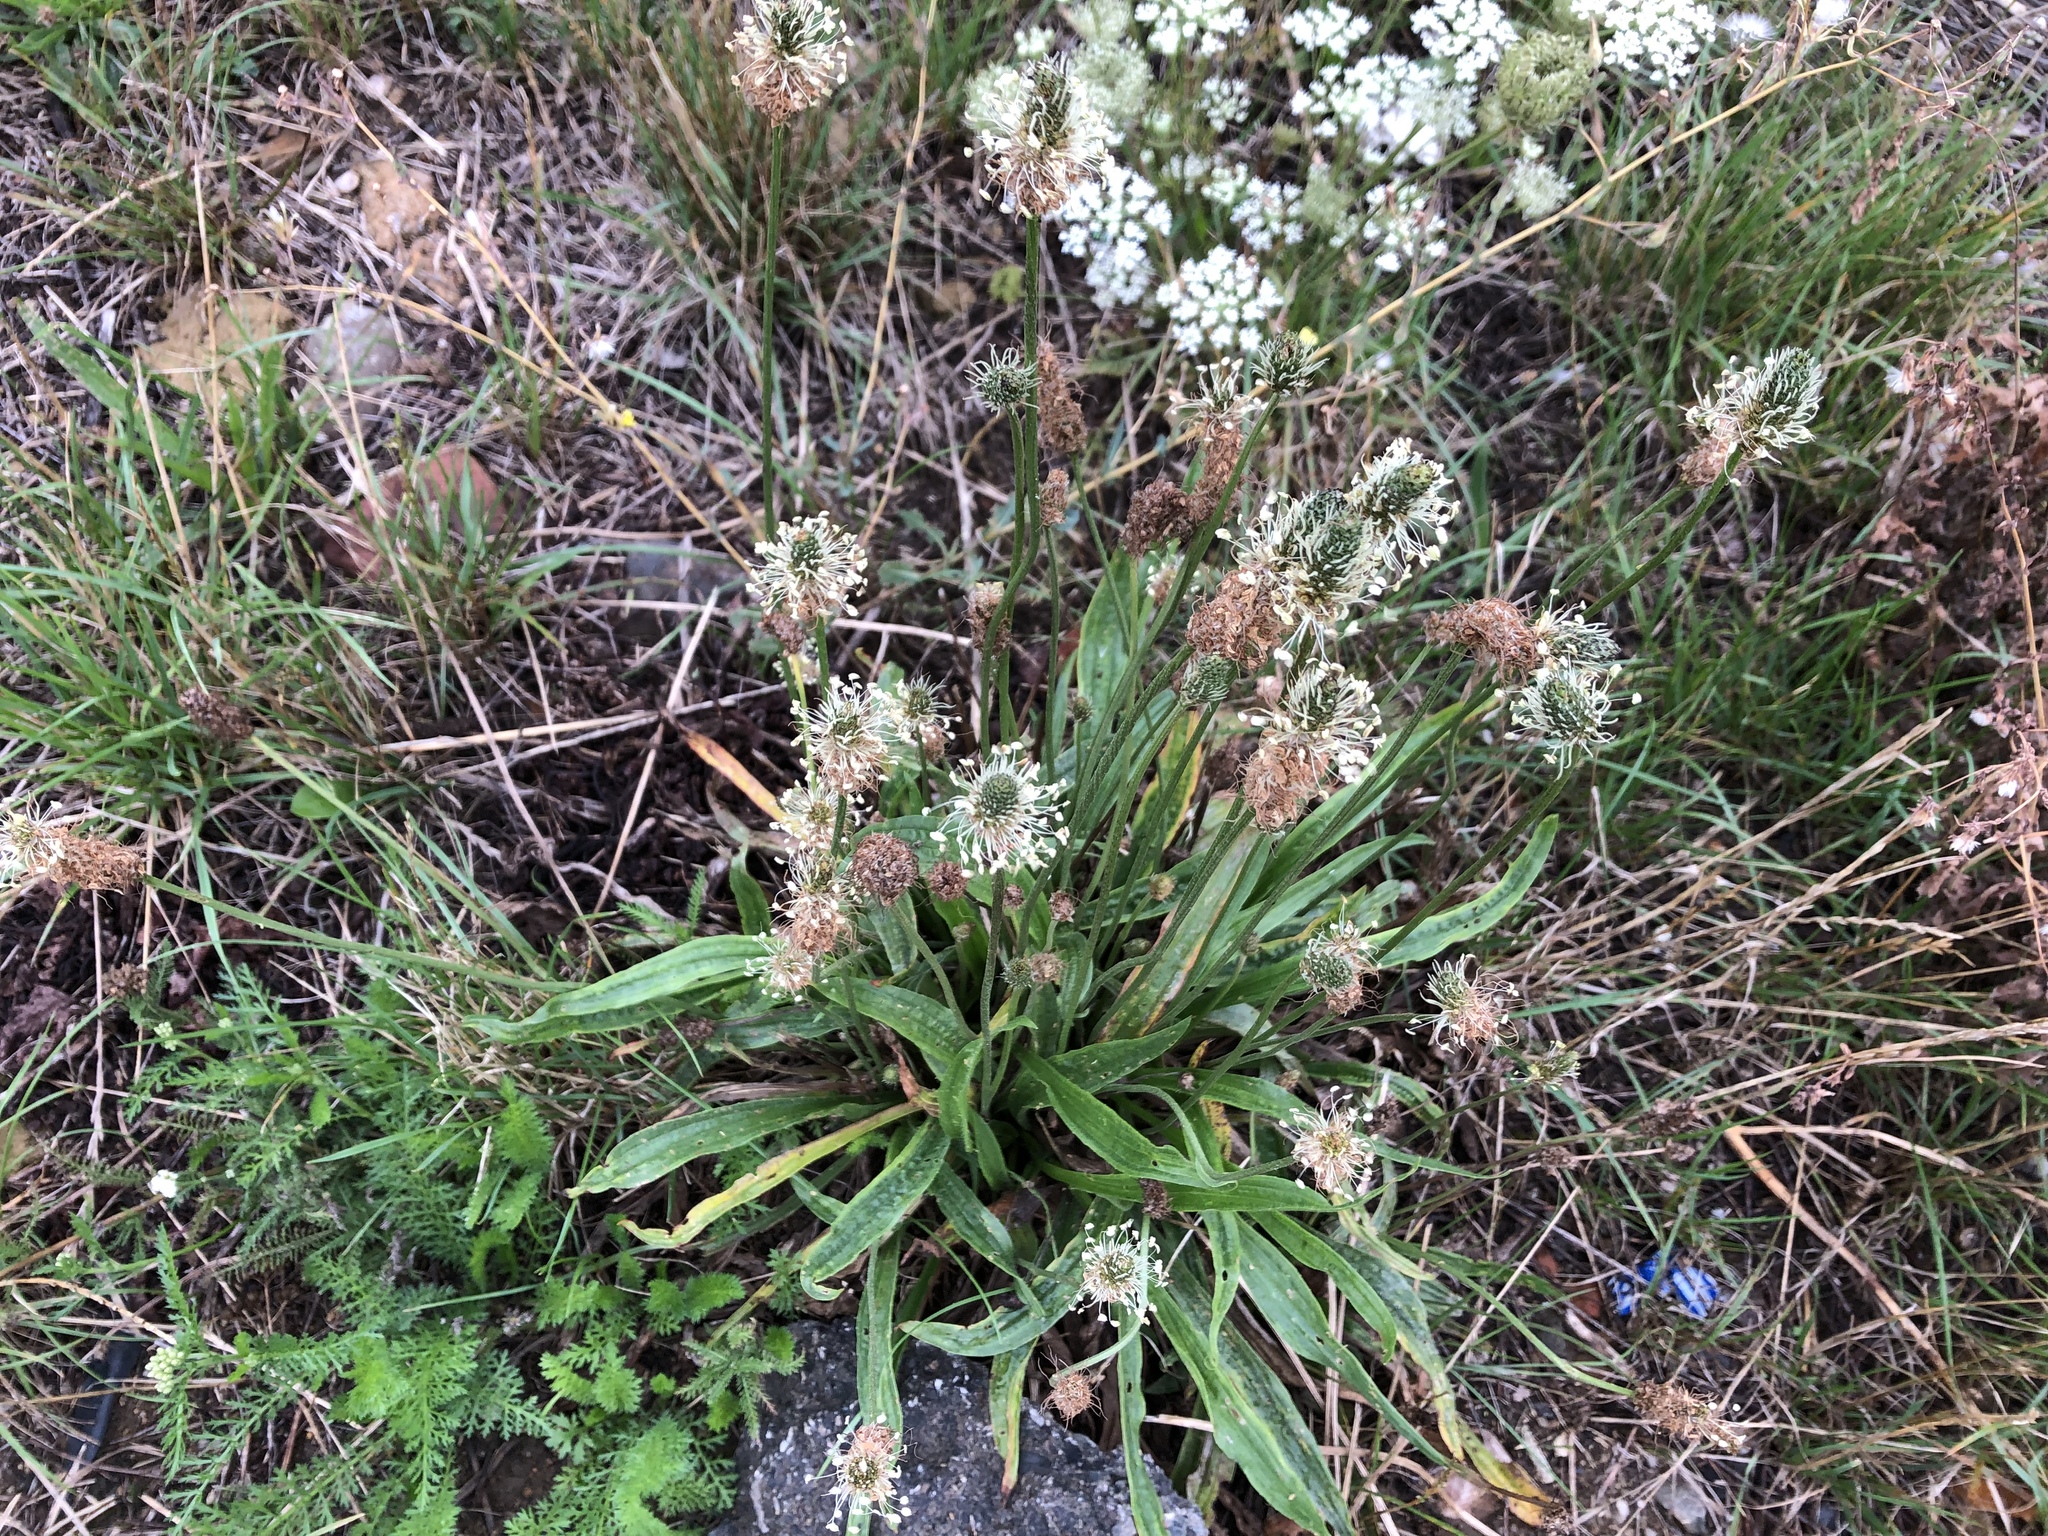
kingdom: Plantae
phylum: Tracheophyta
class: Magnoliopsida
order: Lamiales
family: Plantaginaceae
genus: Plantago
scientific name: Plantago lanceolata
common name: Ribwort plantain
